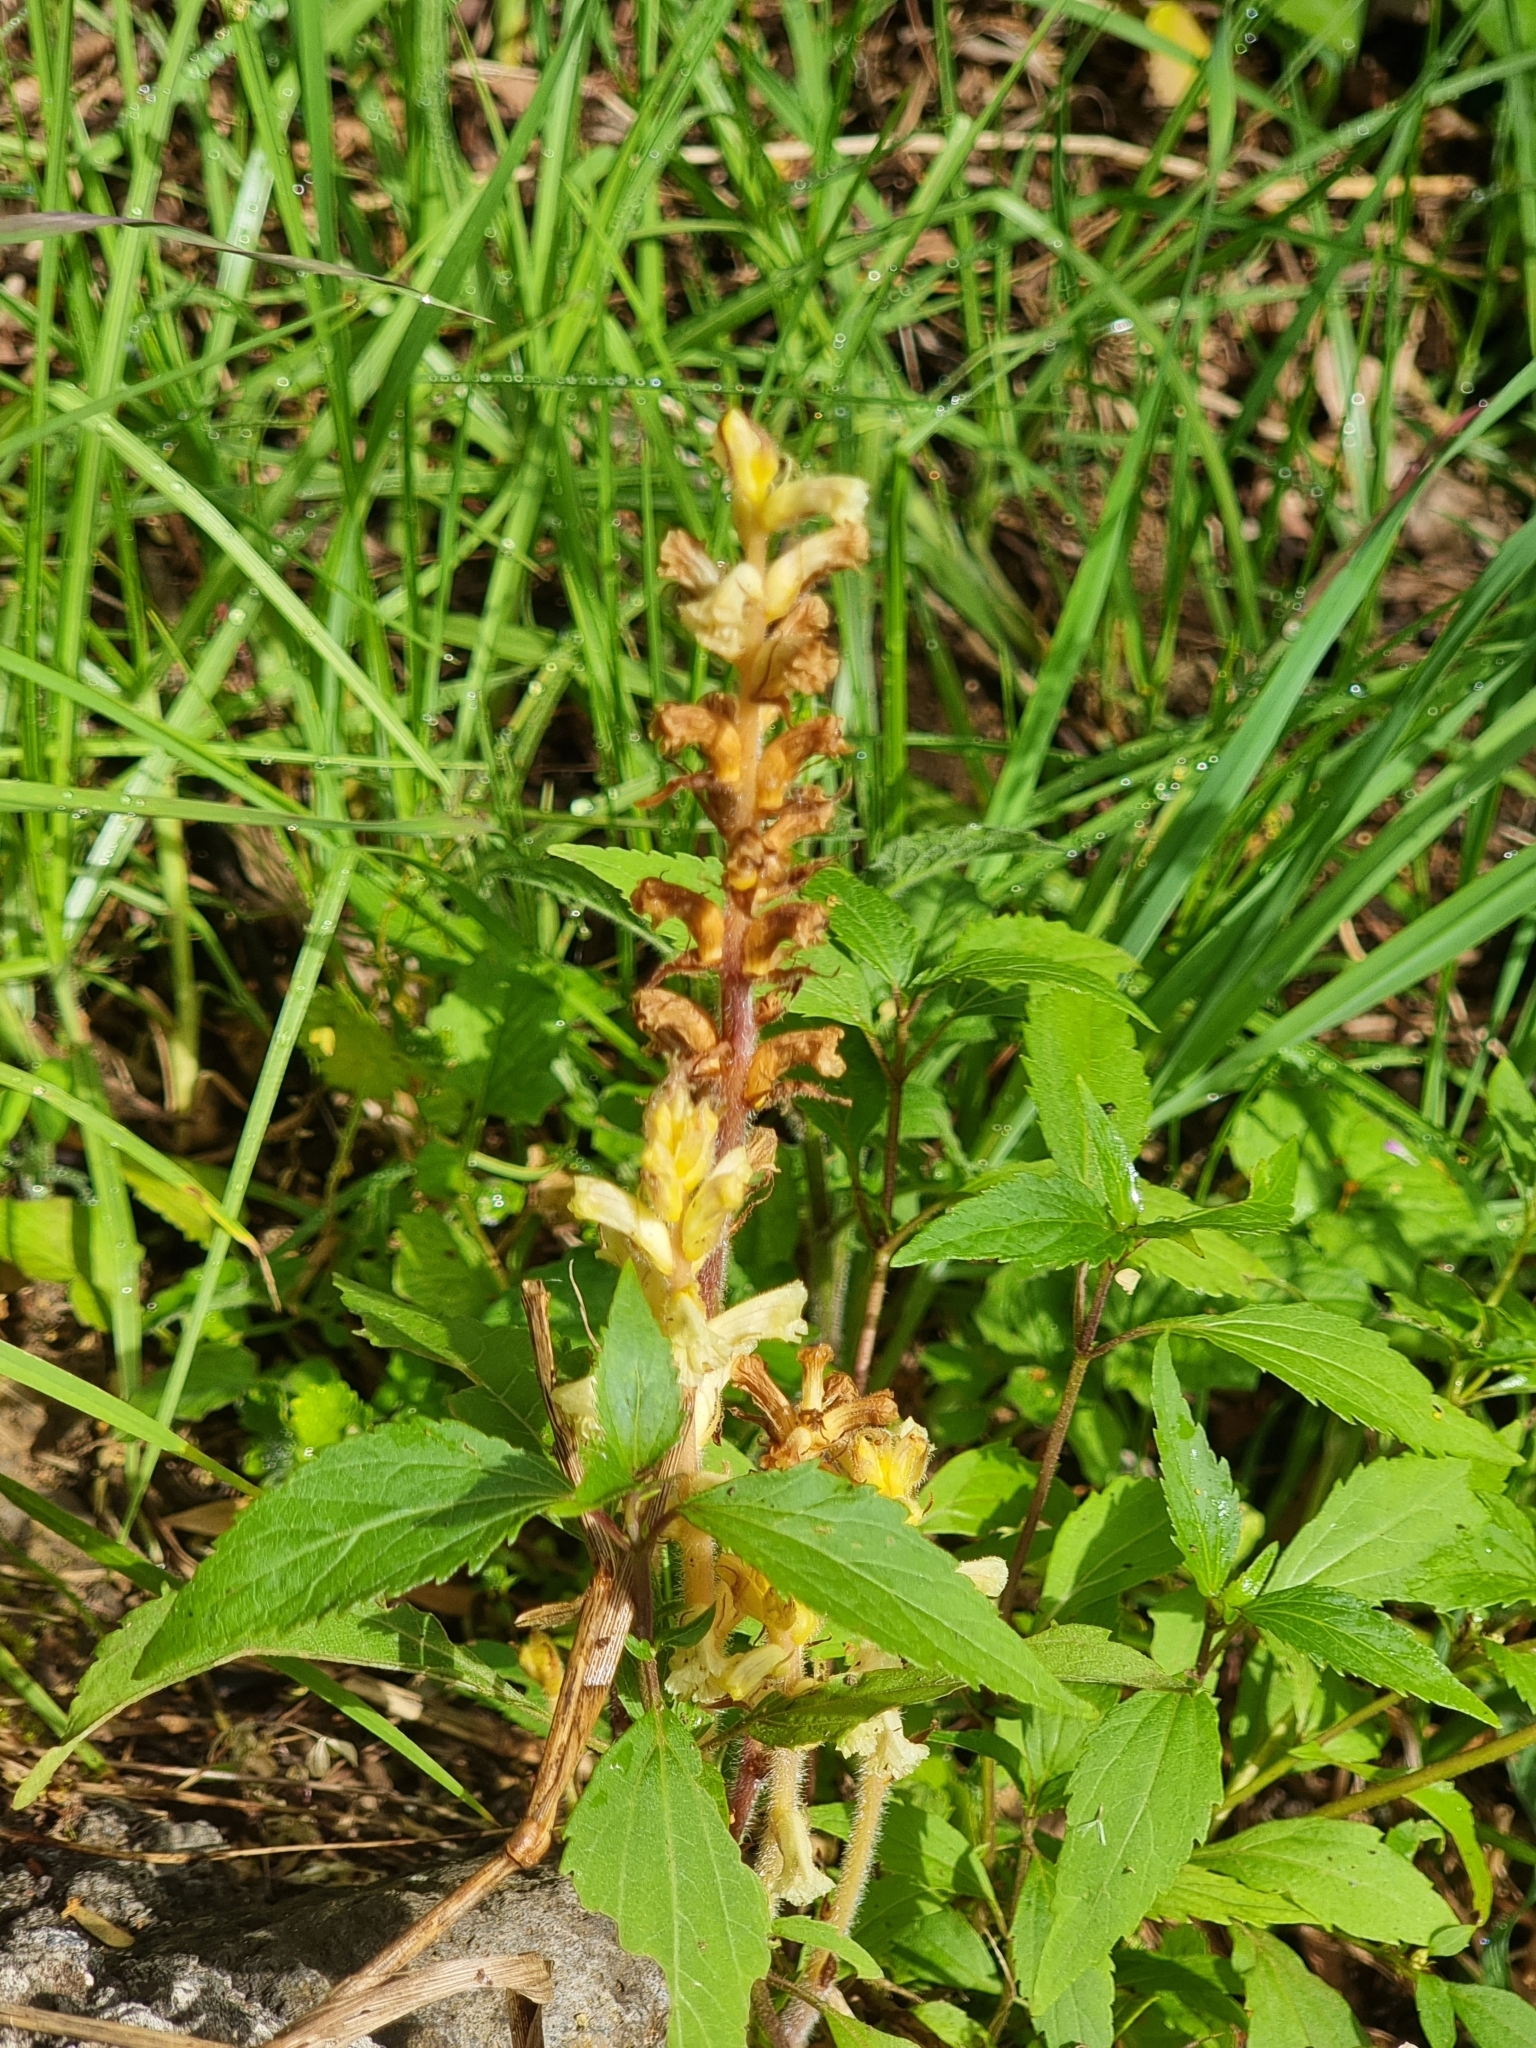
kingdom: Plantae
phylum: Tracheophyta
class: Magnoliopsida
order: Lamiales
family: Orobanchaceae
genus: Orobanche
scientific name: Orobanche minor
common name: Common broomrape
